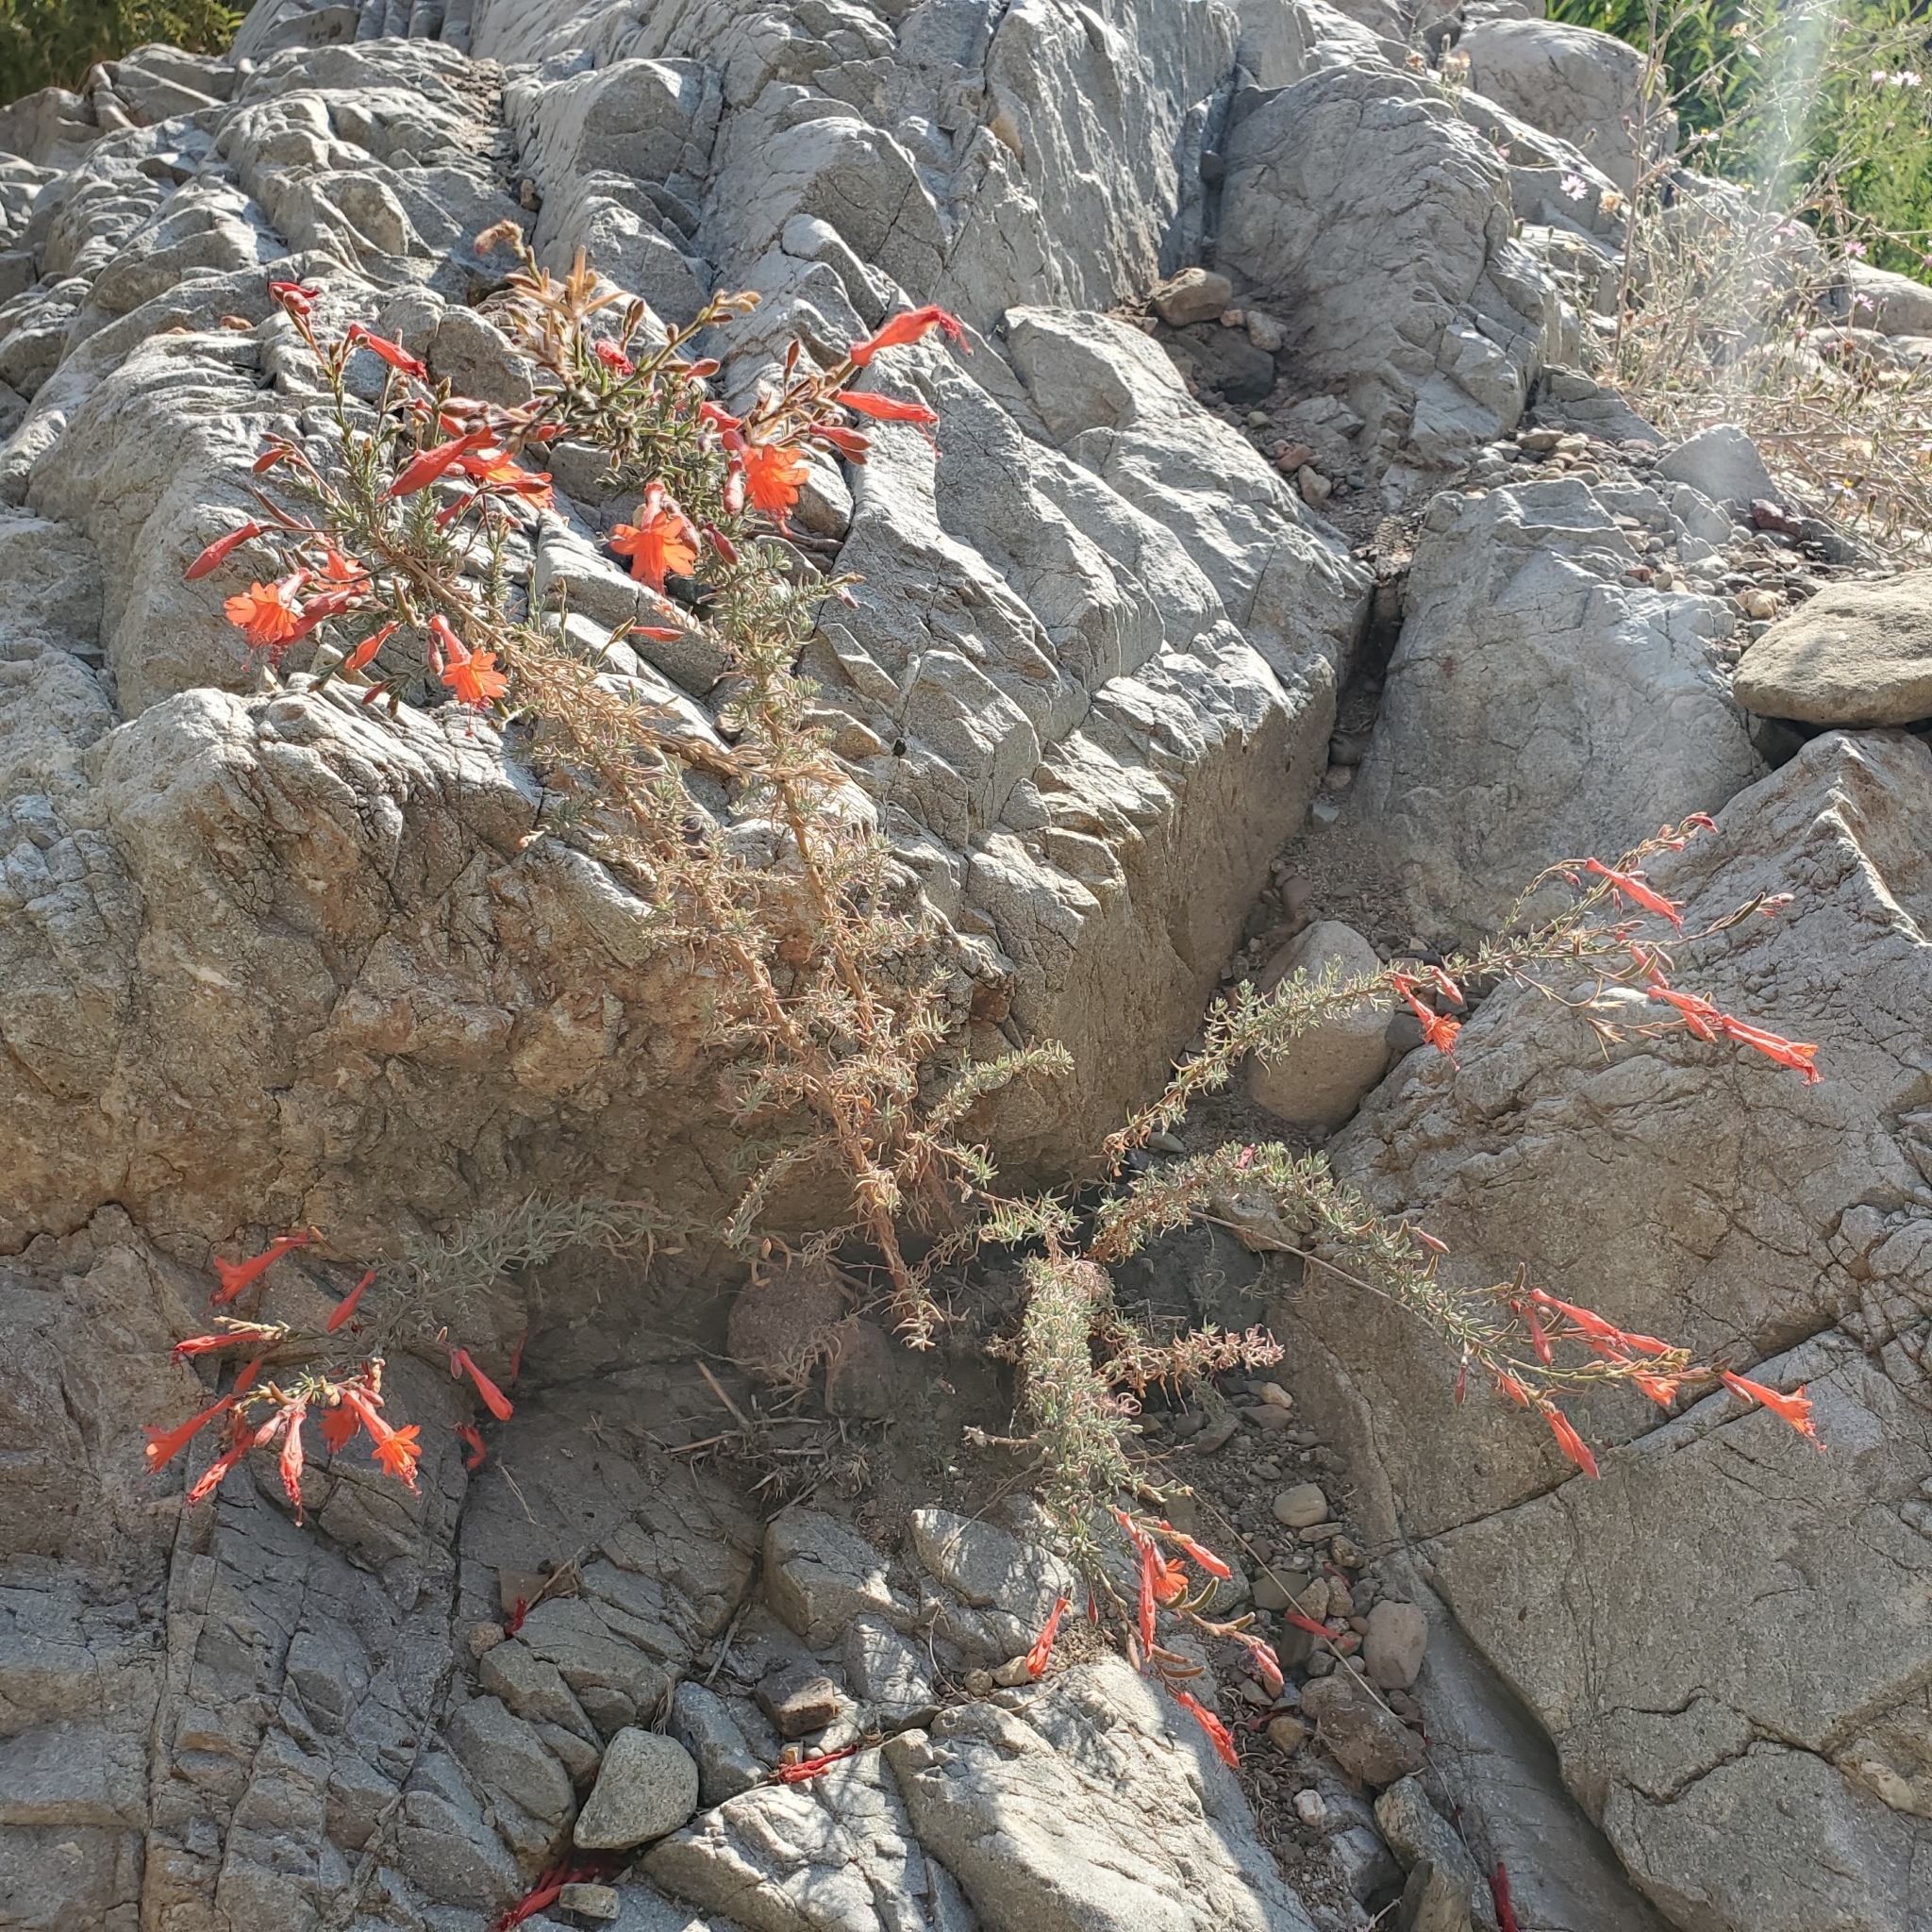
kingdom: Plantae
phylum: Tracheophyta
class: Magnoliopsida
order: Myrtales
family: Onagraceae
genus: Epilobium
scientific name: Epilobium canum
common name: California-fuchsia
